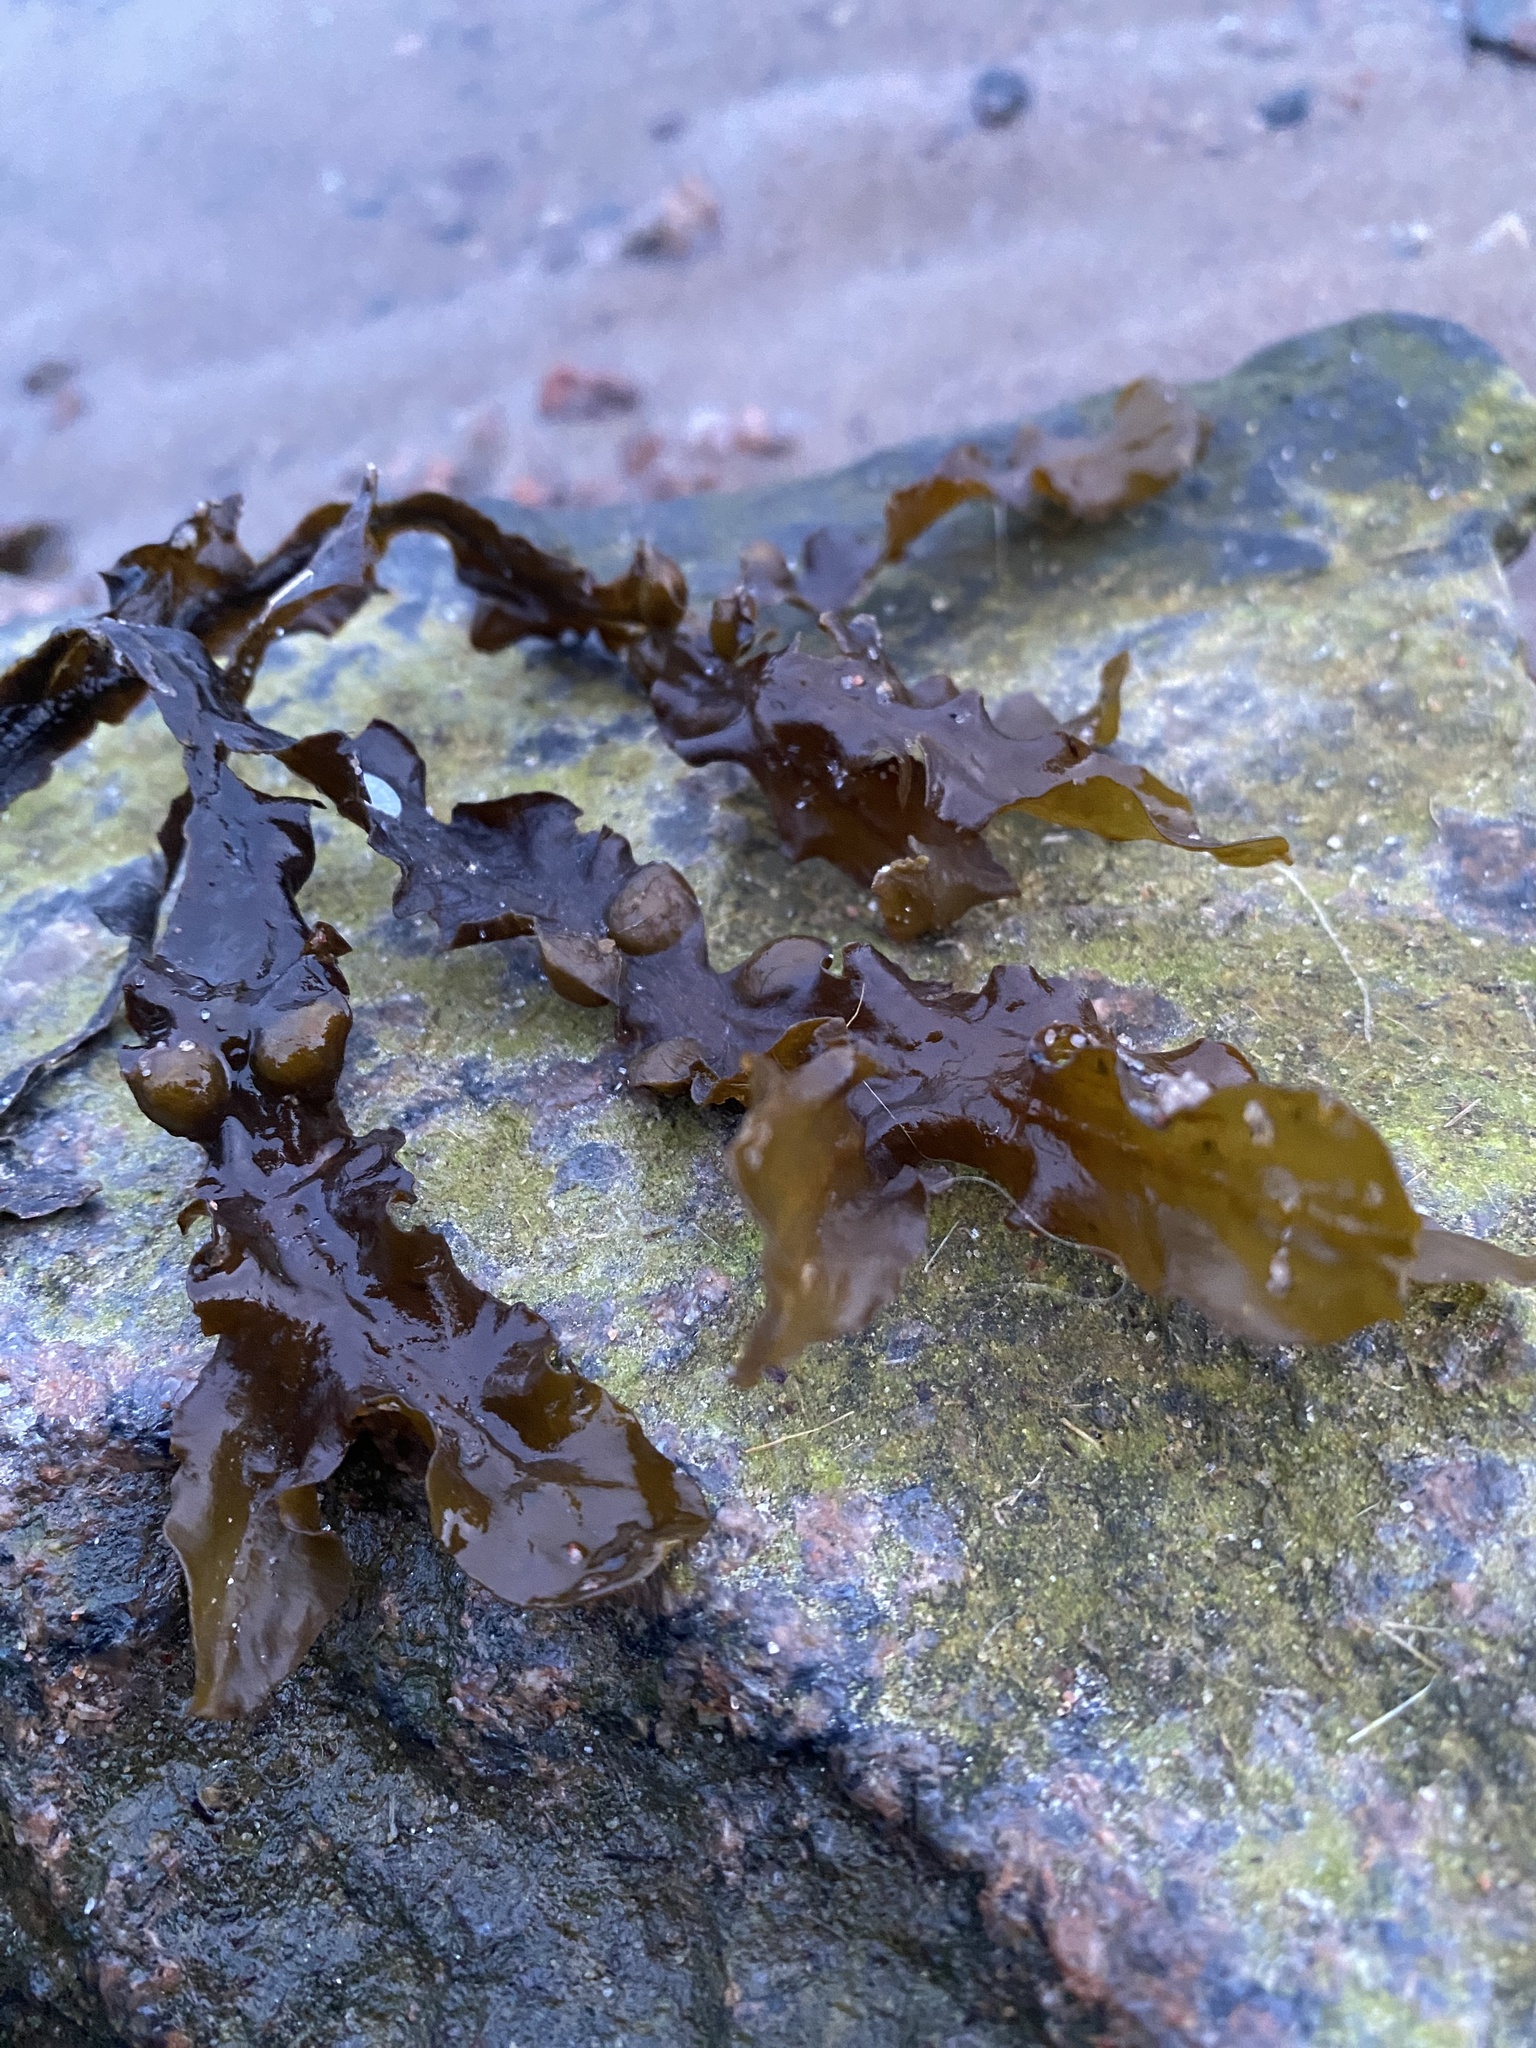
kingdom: Chromista
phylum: Ochrophyta
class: Phaeophyceae
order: Fucales
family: Fucaceae
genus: Fucus
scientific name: Fucus vesiculosus
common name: Bladder wrack
